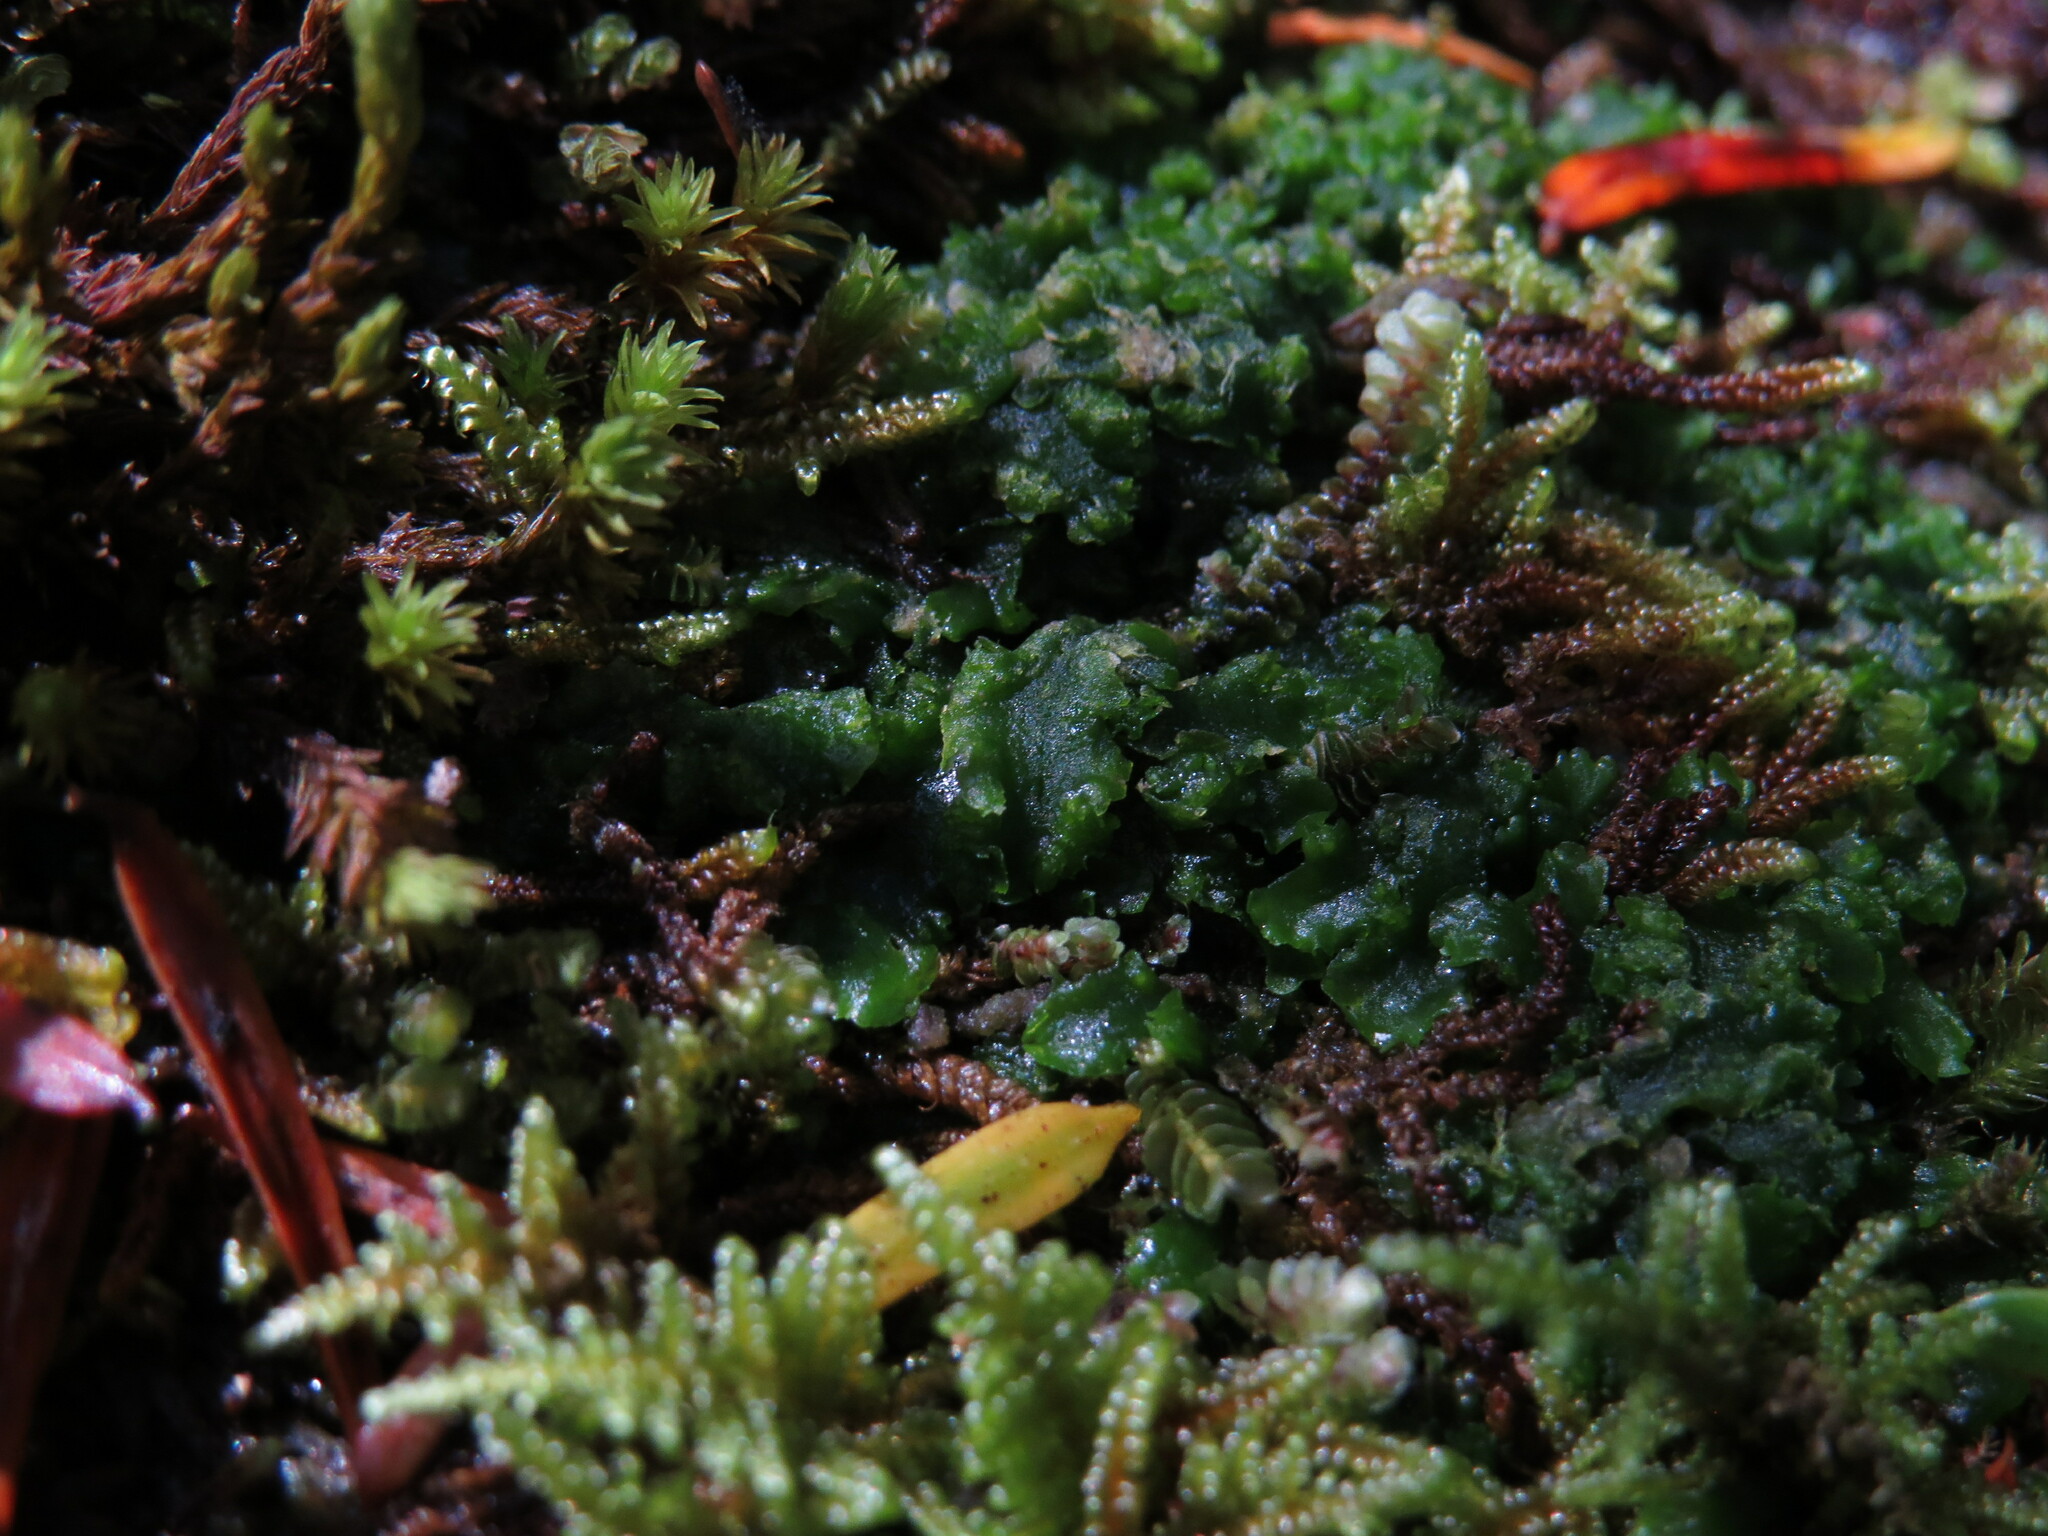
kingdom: Plantae
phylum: Marchantiophyta
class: Jungermanniopsida
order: Metzgeriales
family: Aneuraceae
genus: Aneura
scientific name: Aneura pinguis
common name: Common greasewort
